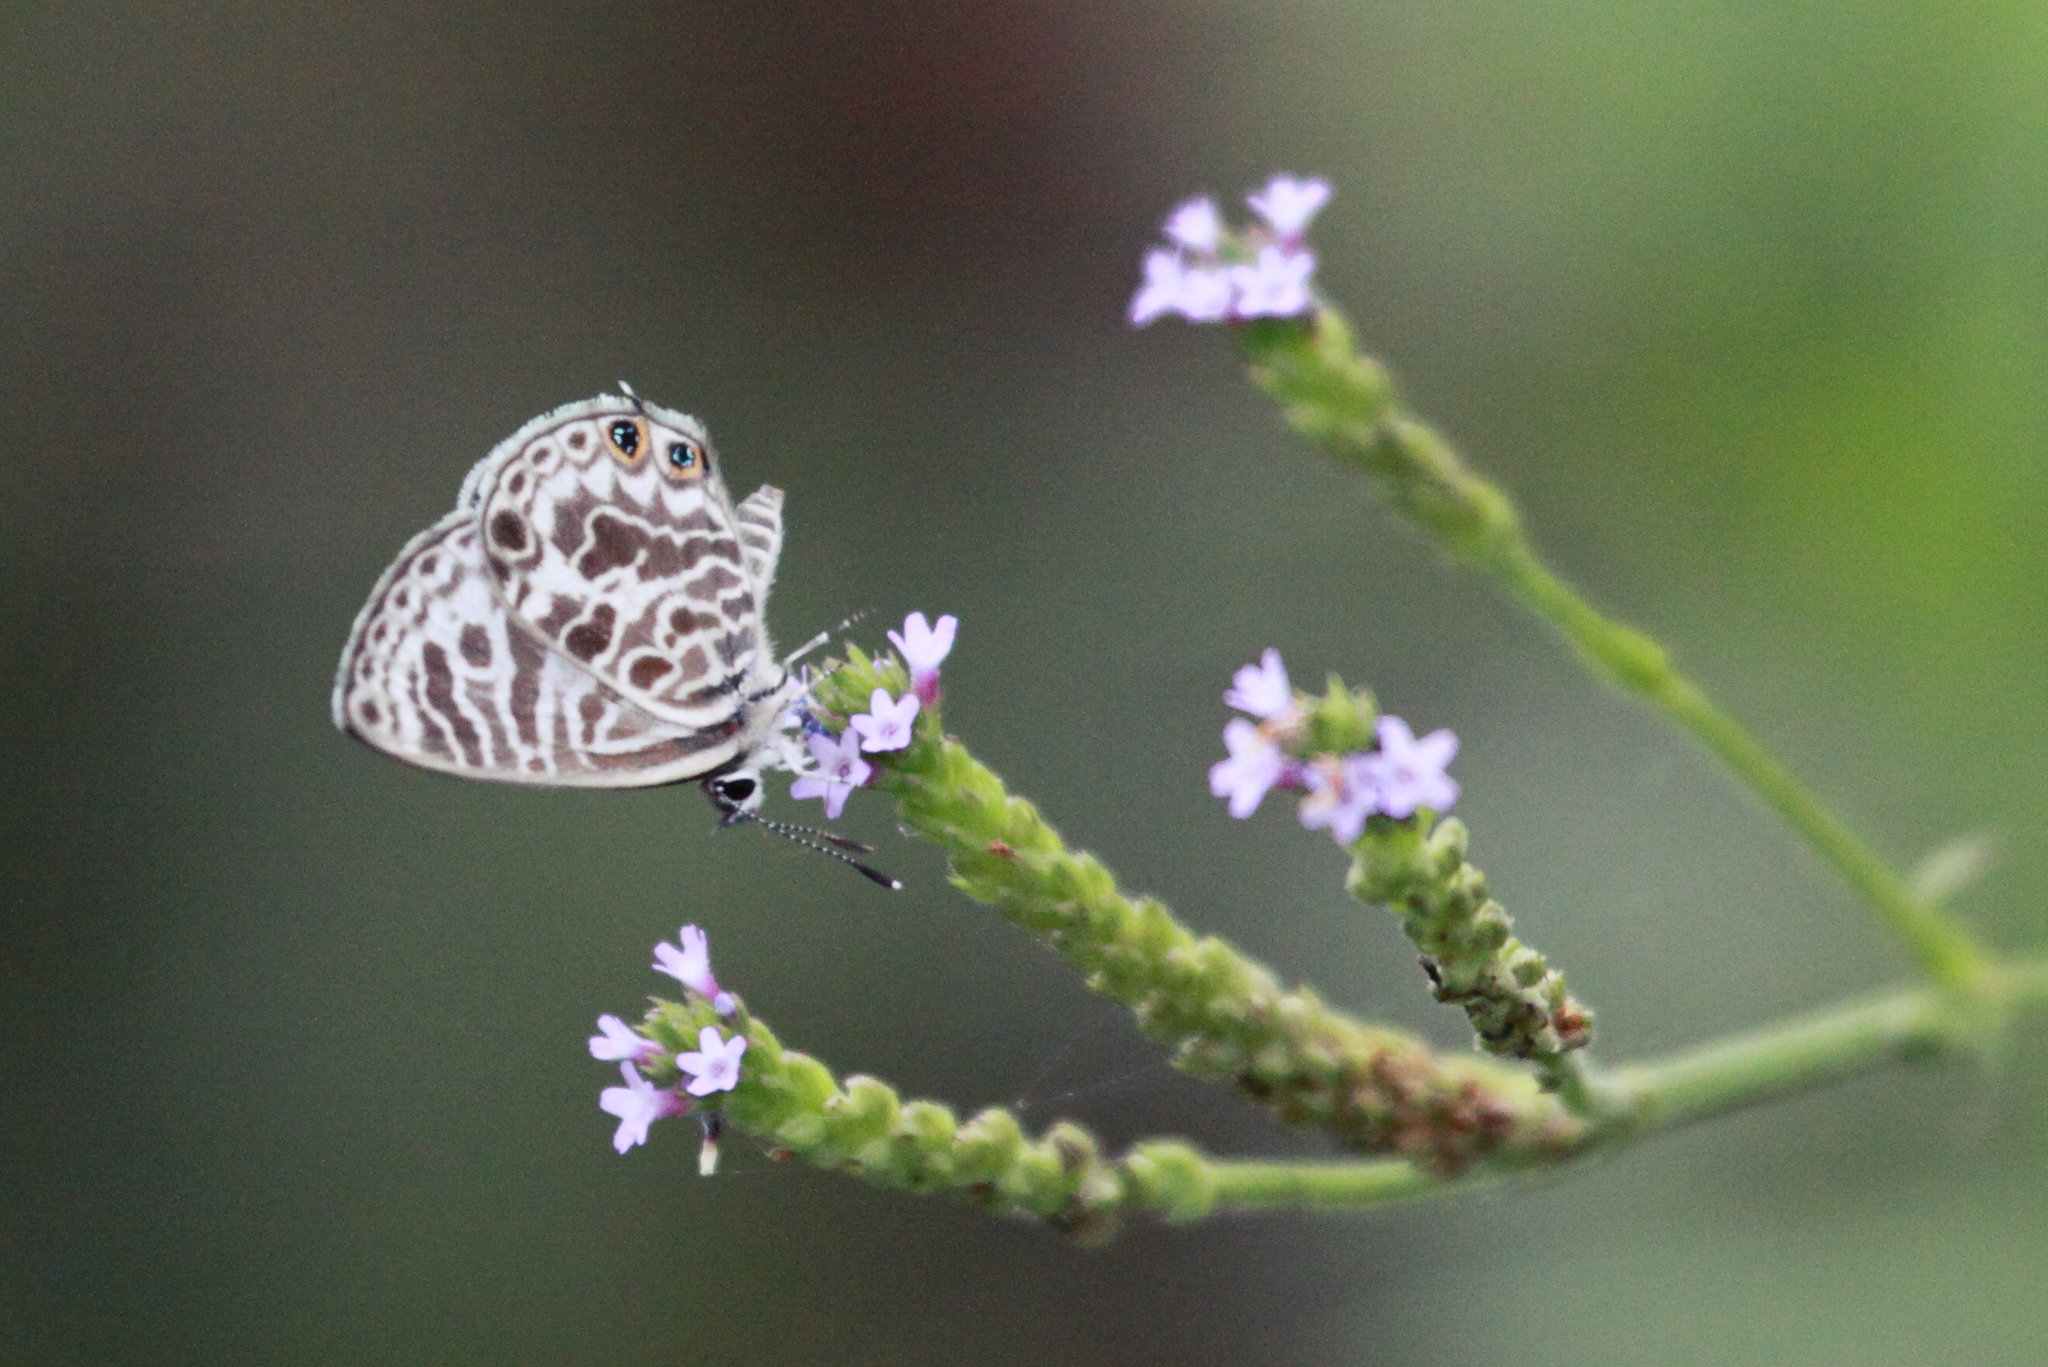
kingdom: Animalia
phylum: Arthropoda
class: Insecta
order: Lepidoptera
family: Lycaenidae
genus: Leptotes
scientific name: Leptotes plinius
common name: Zebra blue
